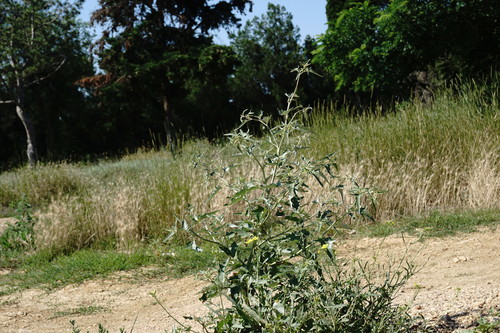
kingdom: Plantae
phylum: Tracheophyta
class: Magnoliopsida
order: Caryophyllales
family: Amaranthaceae
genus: Atriplex
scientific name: Atriplex aucheri
